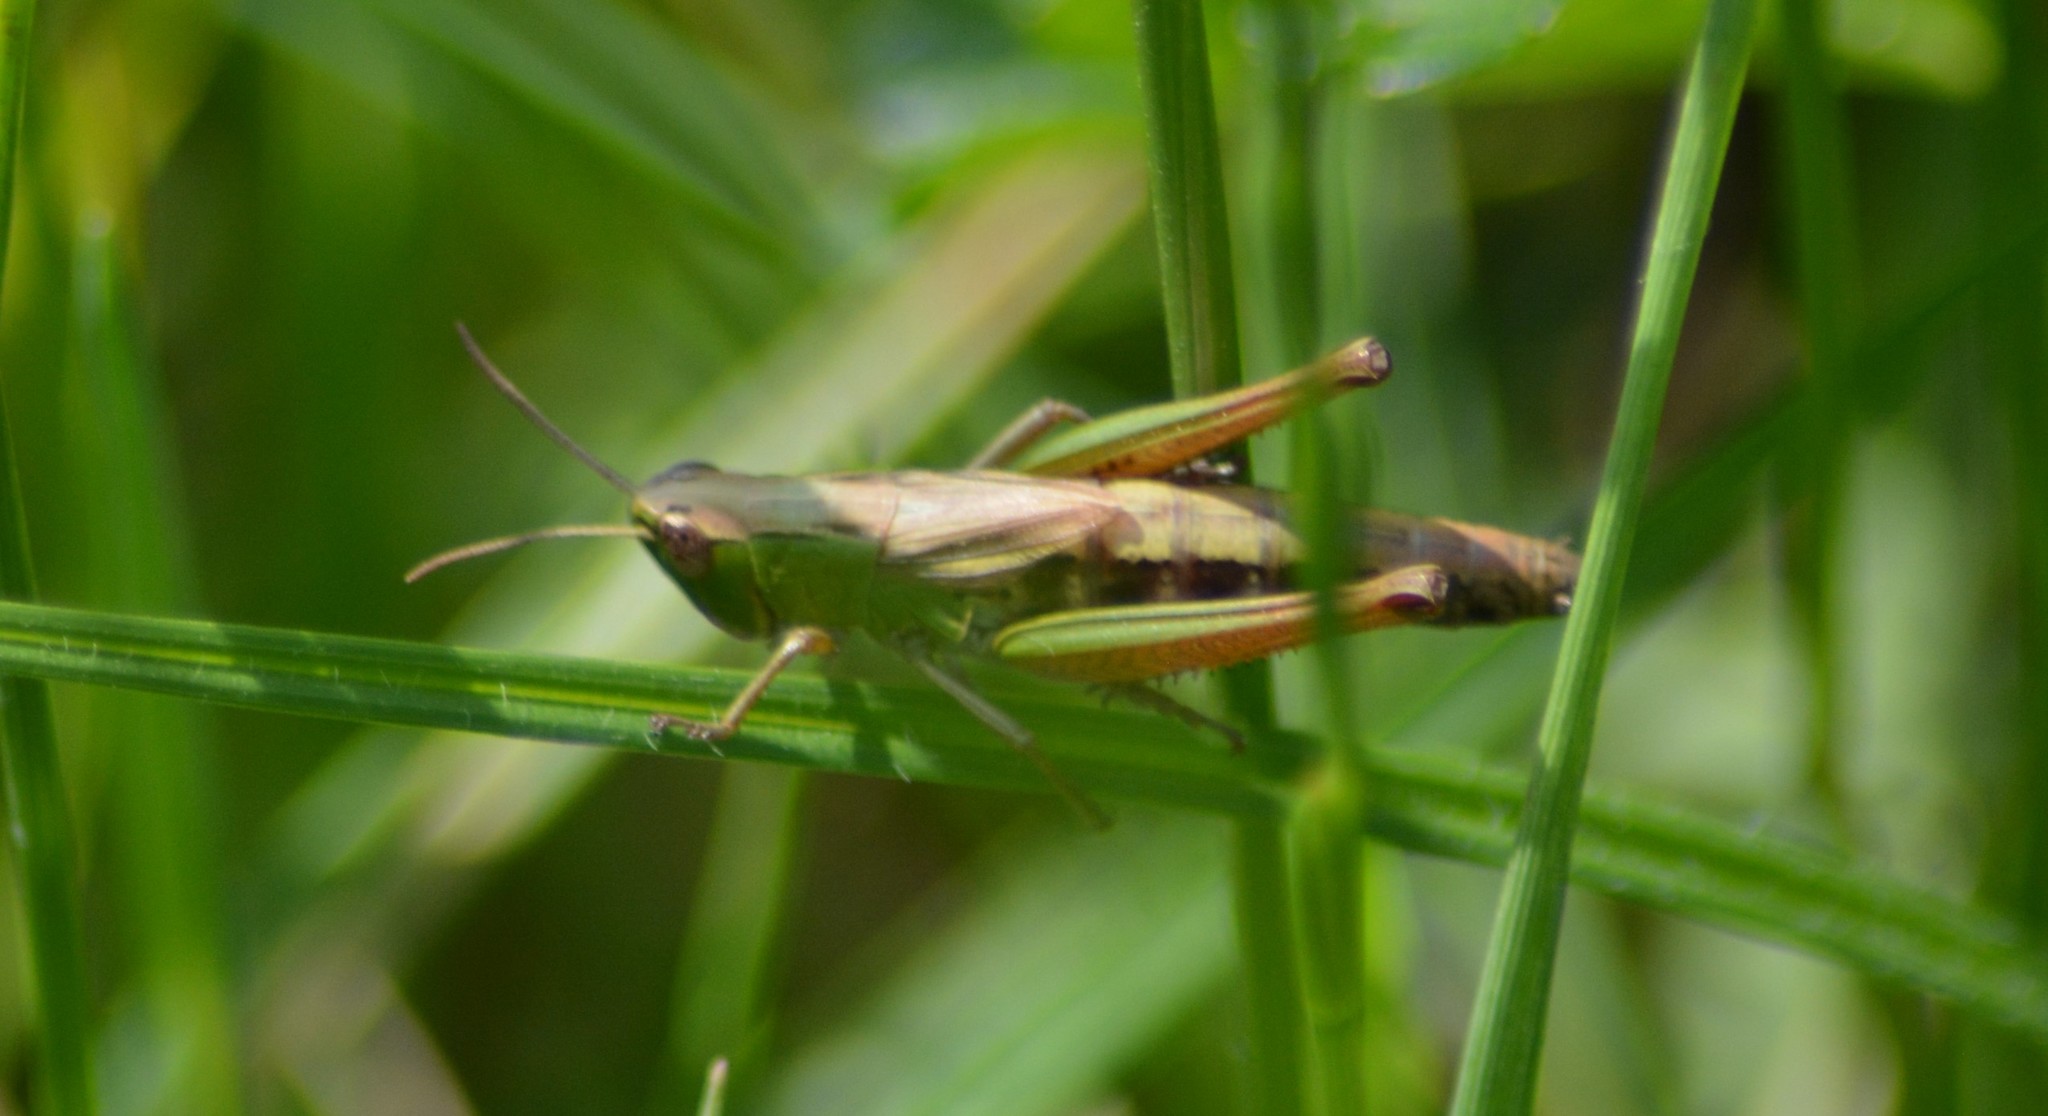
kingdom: Animalia
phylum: Arthropoda
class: Insecta
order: Orthoptera
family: Acrididae
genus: Pseudochorthippus
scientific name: Pseudochorthippus parallelus
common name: Meadow grasshopper
